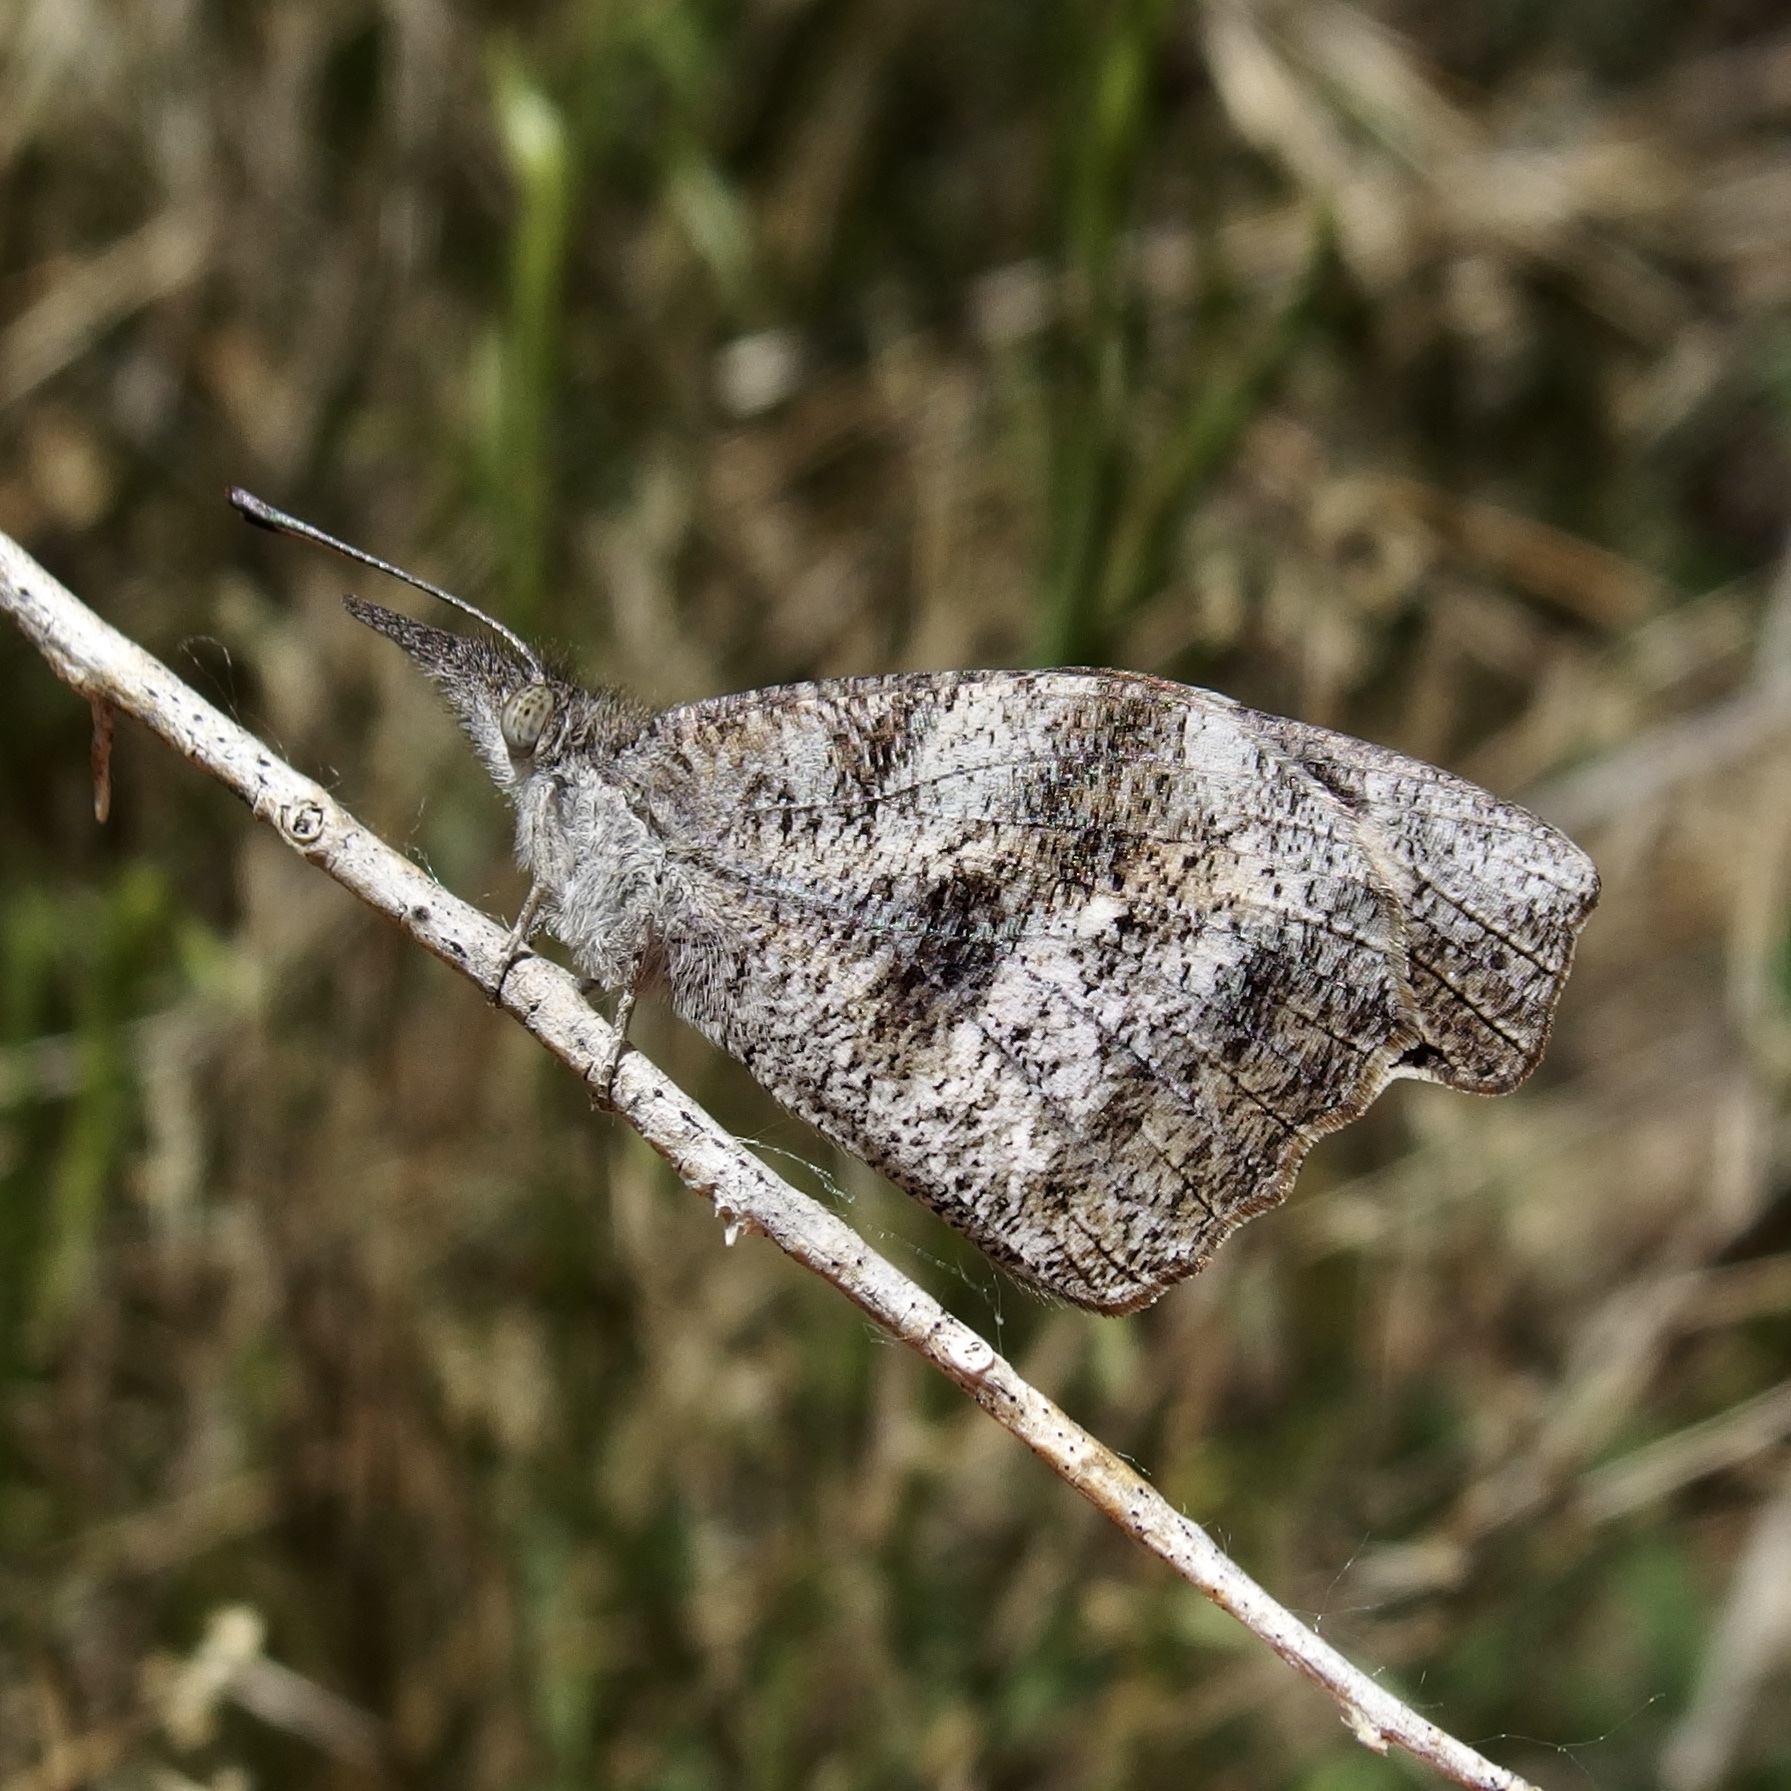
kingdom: Animalia
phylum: Arthropoda
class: Insecta
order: Lepidoptera
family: Nymphalidae
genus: Libytheana
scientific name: Libytheana carinenta
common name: American snout
